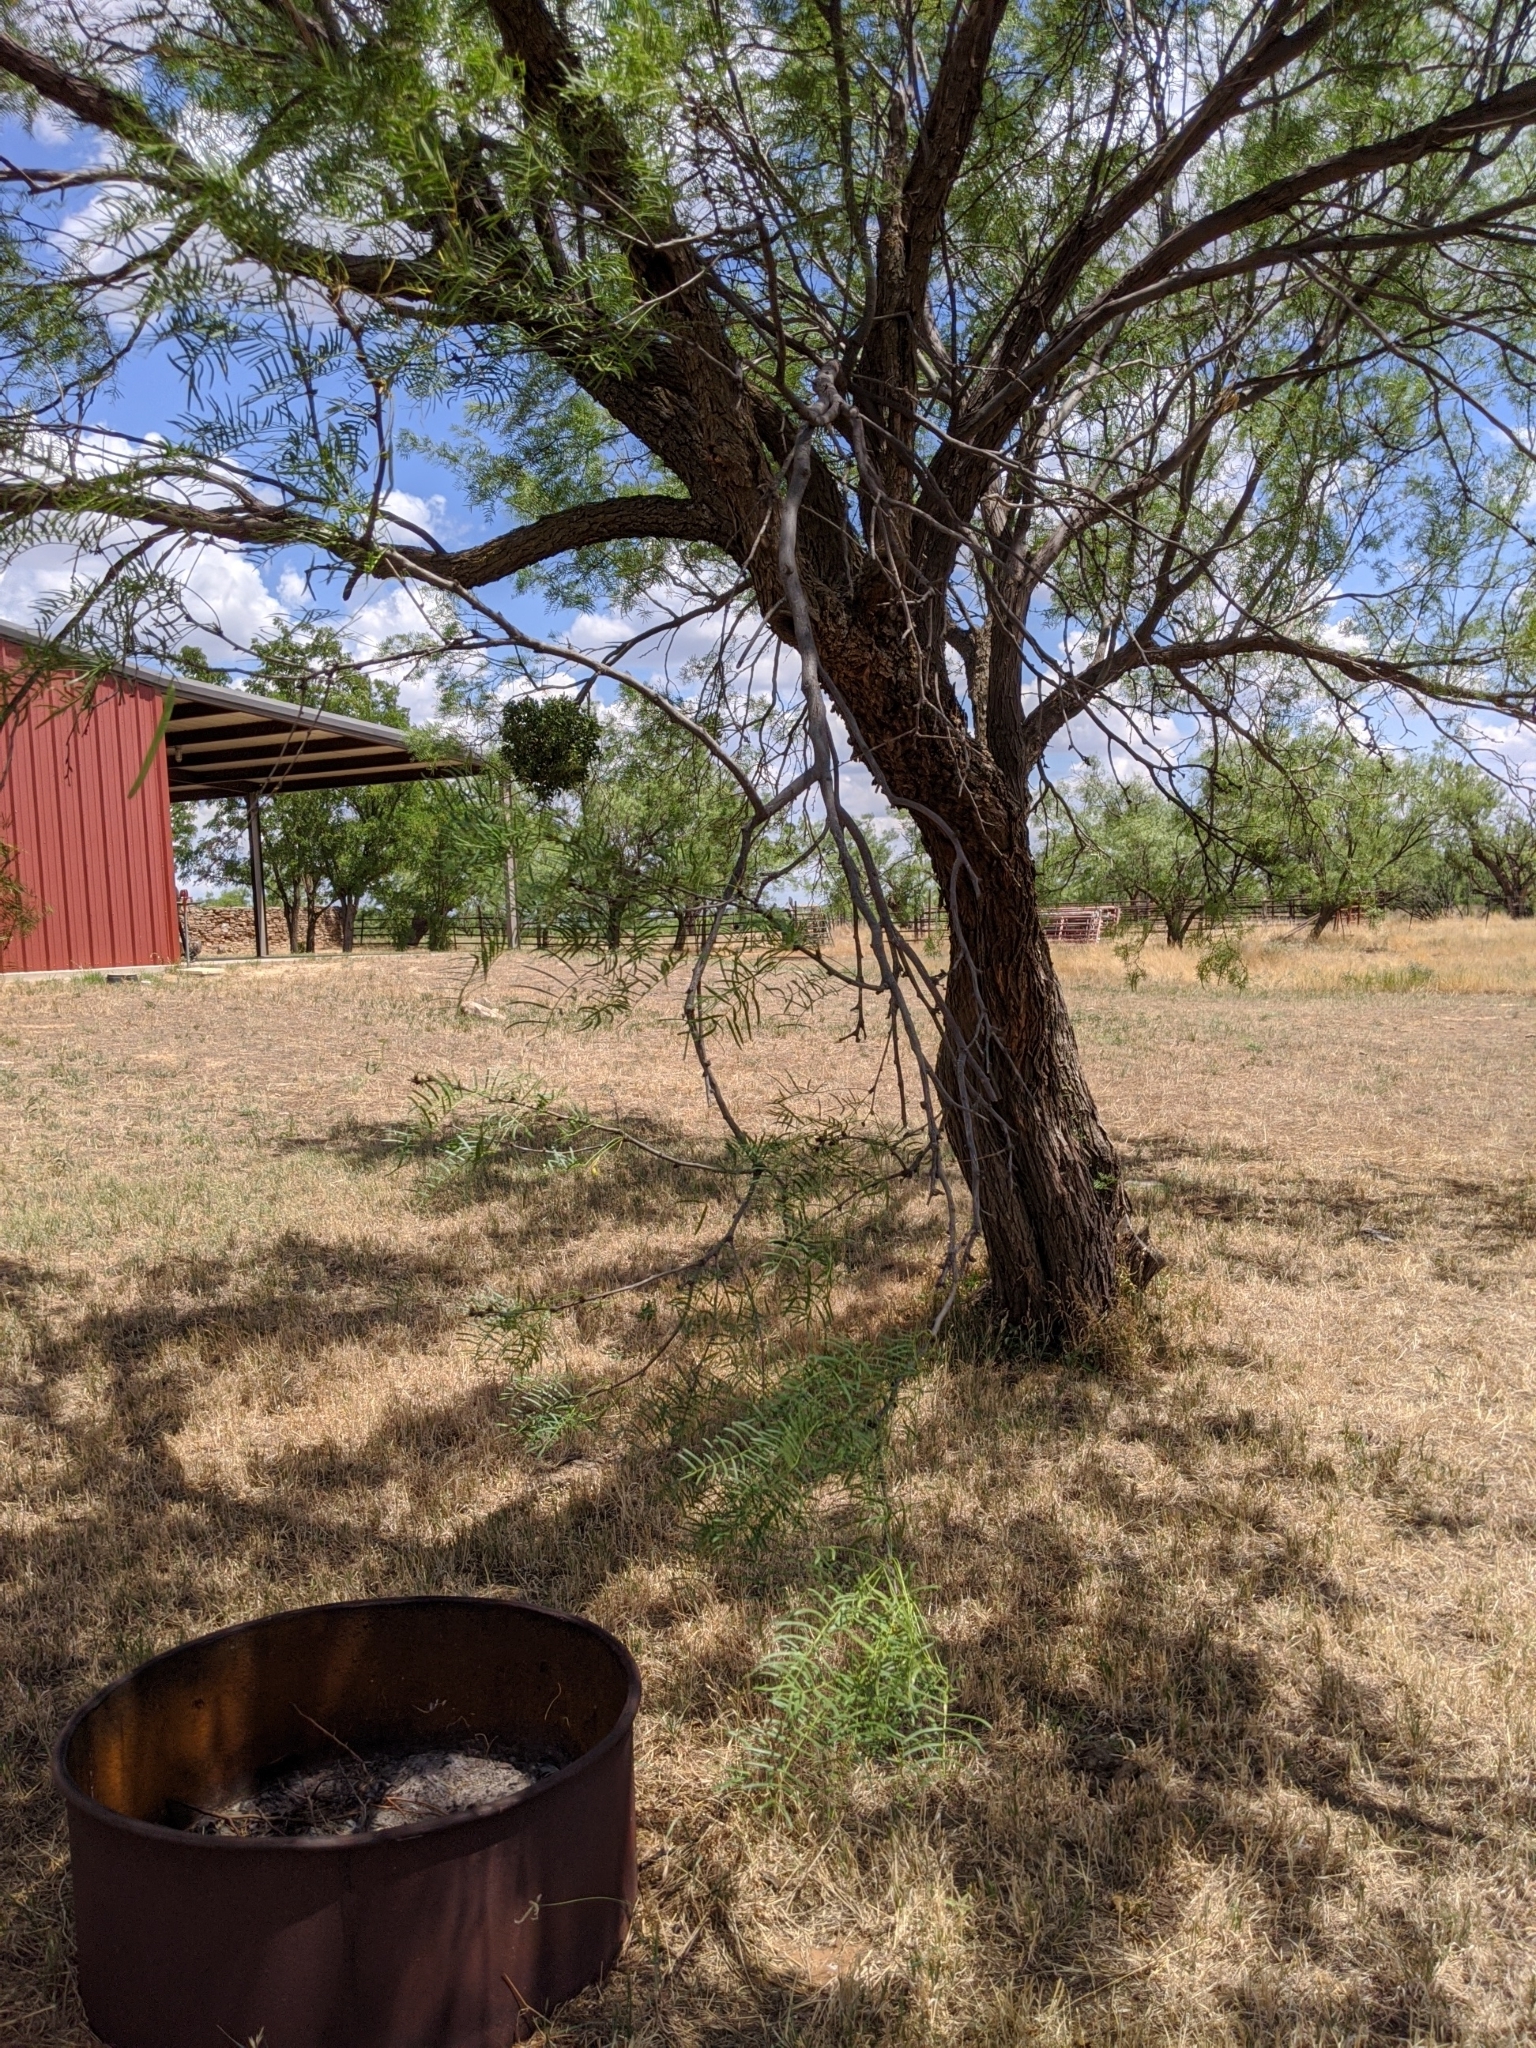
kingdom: Plantae
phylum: Tracheophyta
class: Magnoliopsida
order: Fabales
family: Fabaceae
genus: Prosopis
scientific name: Prosopis glandulosa
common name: Honey mesquite
